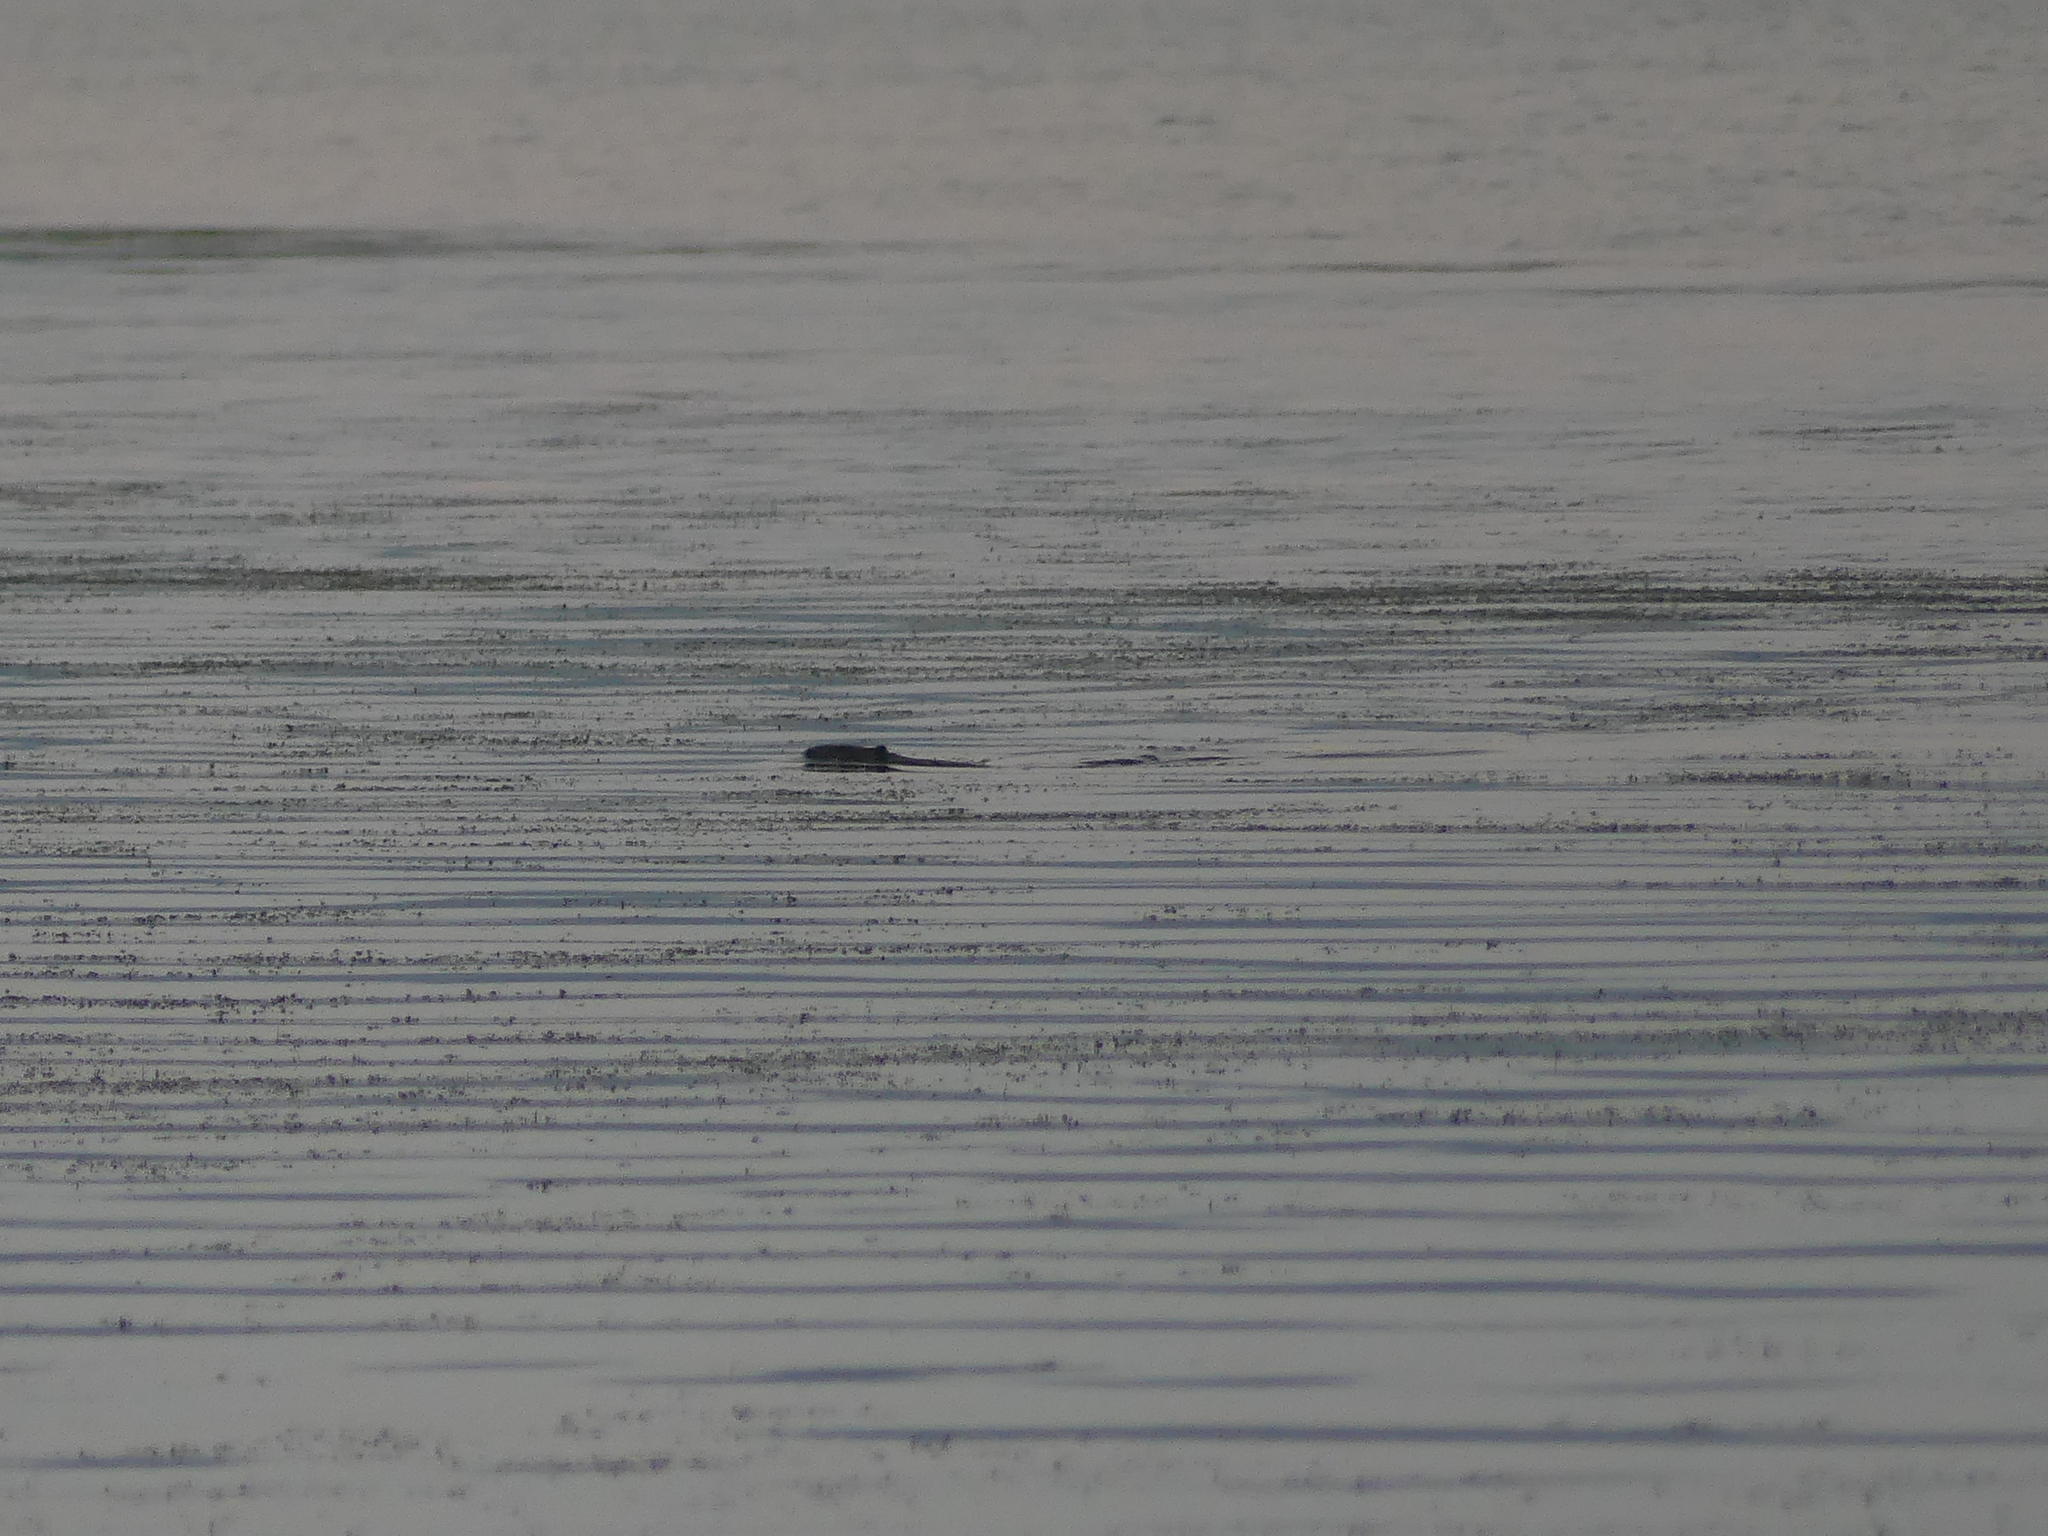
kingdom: Animalia
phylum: Chordata
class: Mammalia
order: Rodentia
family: Castoridae
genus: Castor
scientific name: Castor canadensis
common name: American beaver
